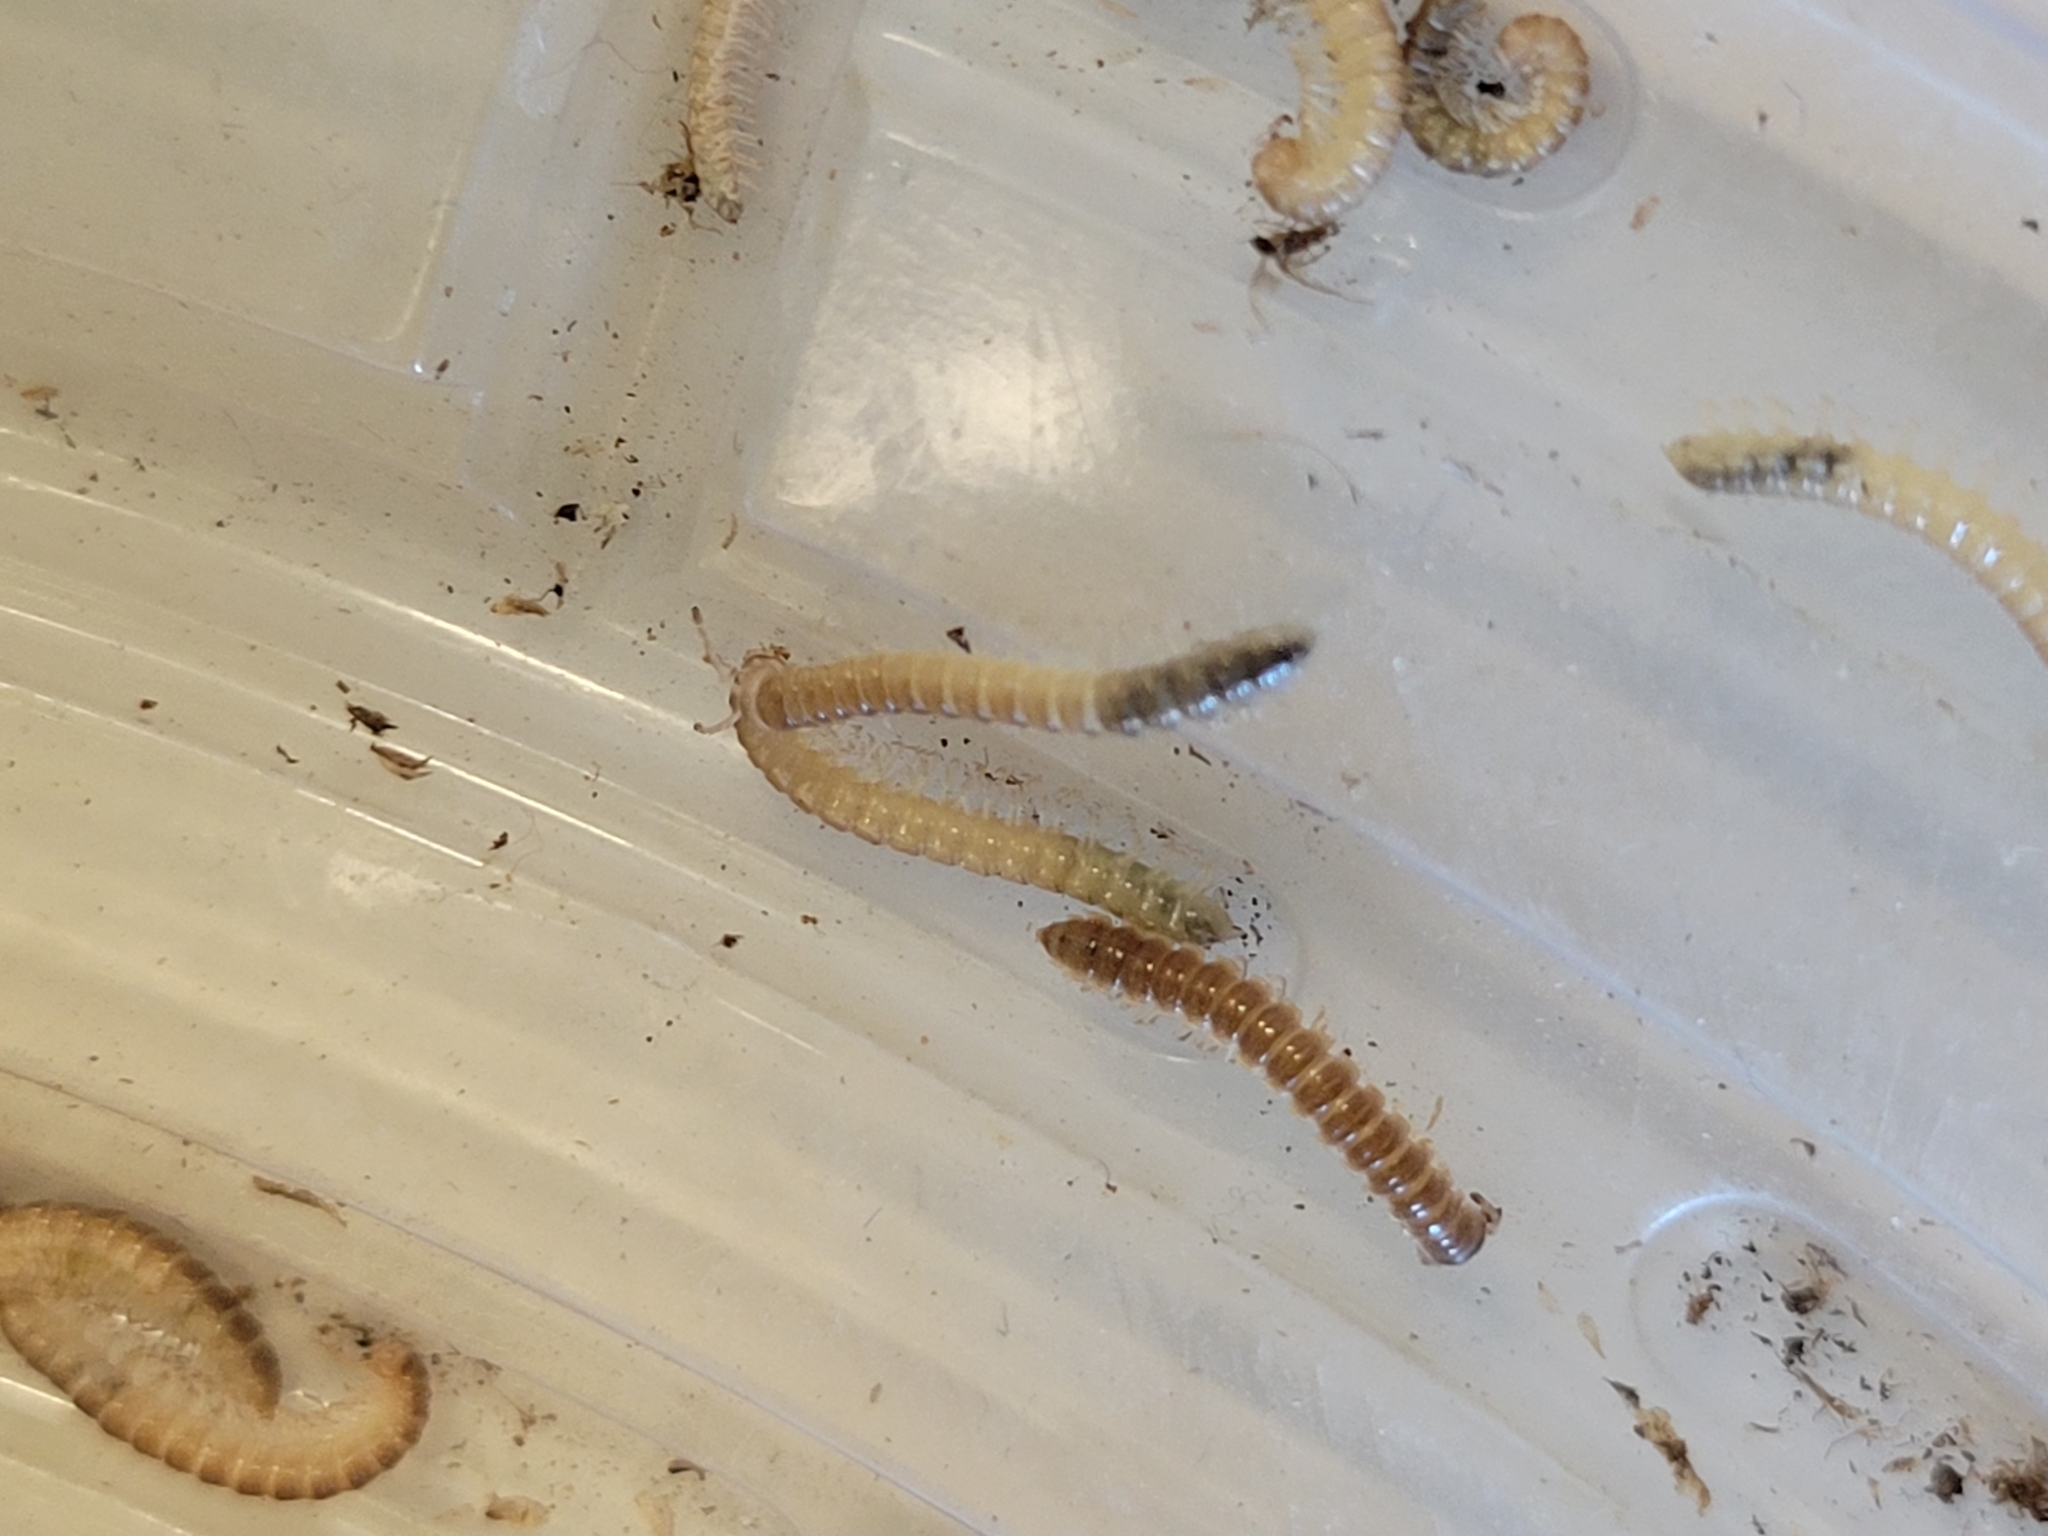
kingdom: Animalia
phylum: Arthropoda
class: Diplopoda
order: Polydesmida
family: Paradoxosomatidae
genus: Oxidus
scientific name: Oxidus gracilis
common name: Greenhouse millipede
